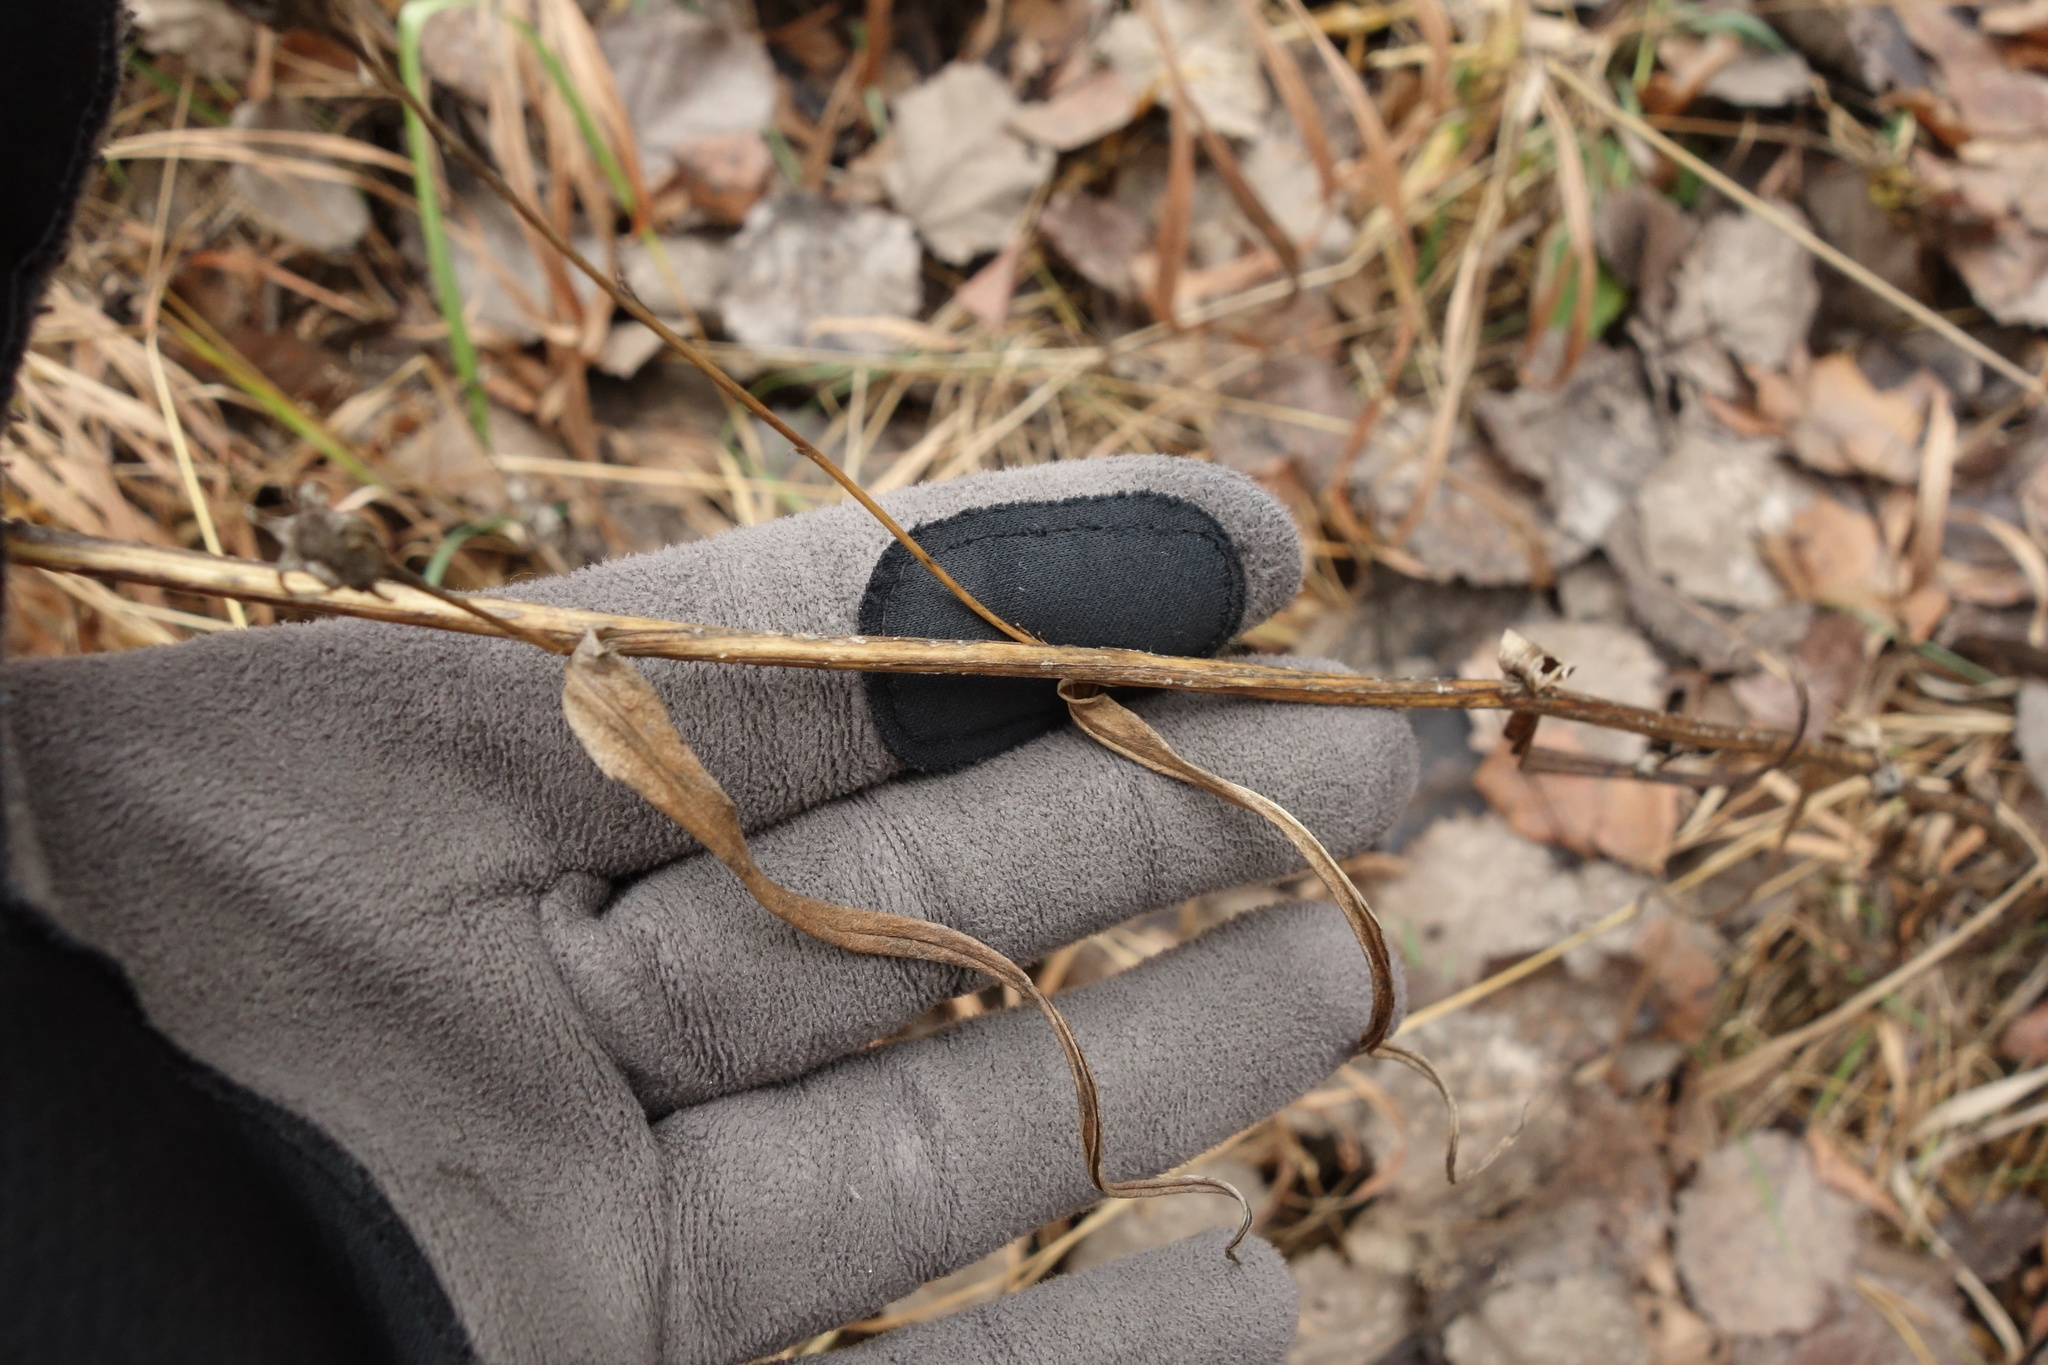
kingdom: Plantae
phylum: Tracheophyta
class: Magnoliopsida
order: Asterales
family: Campanulaceae
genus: Campanula
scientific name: Campanula persicifolia
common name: Peach-leaved bellflower
